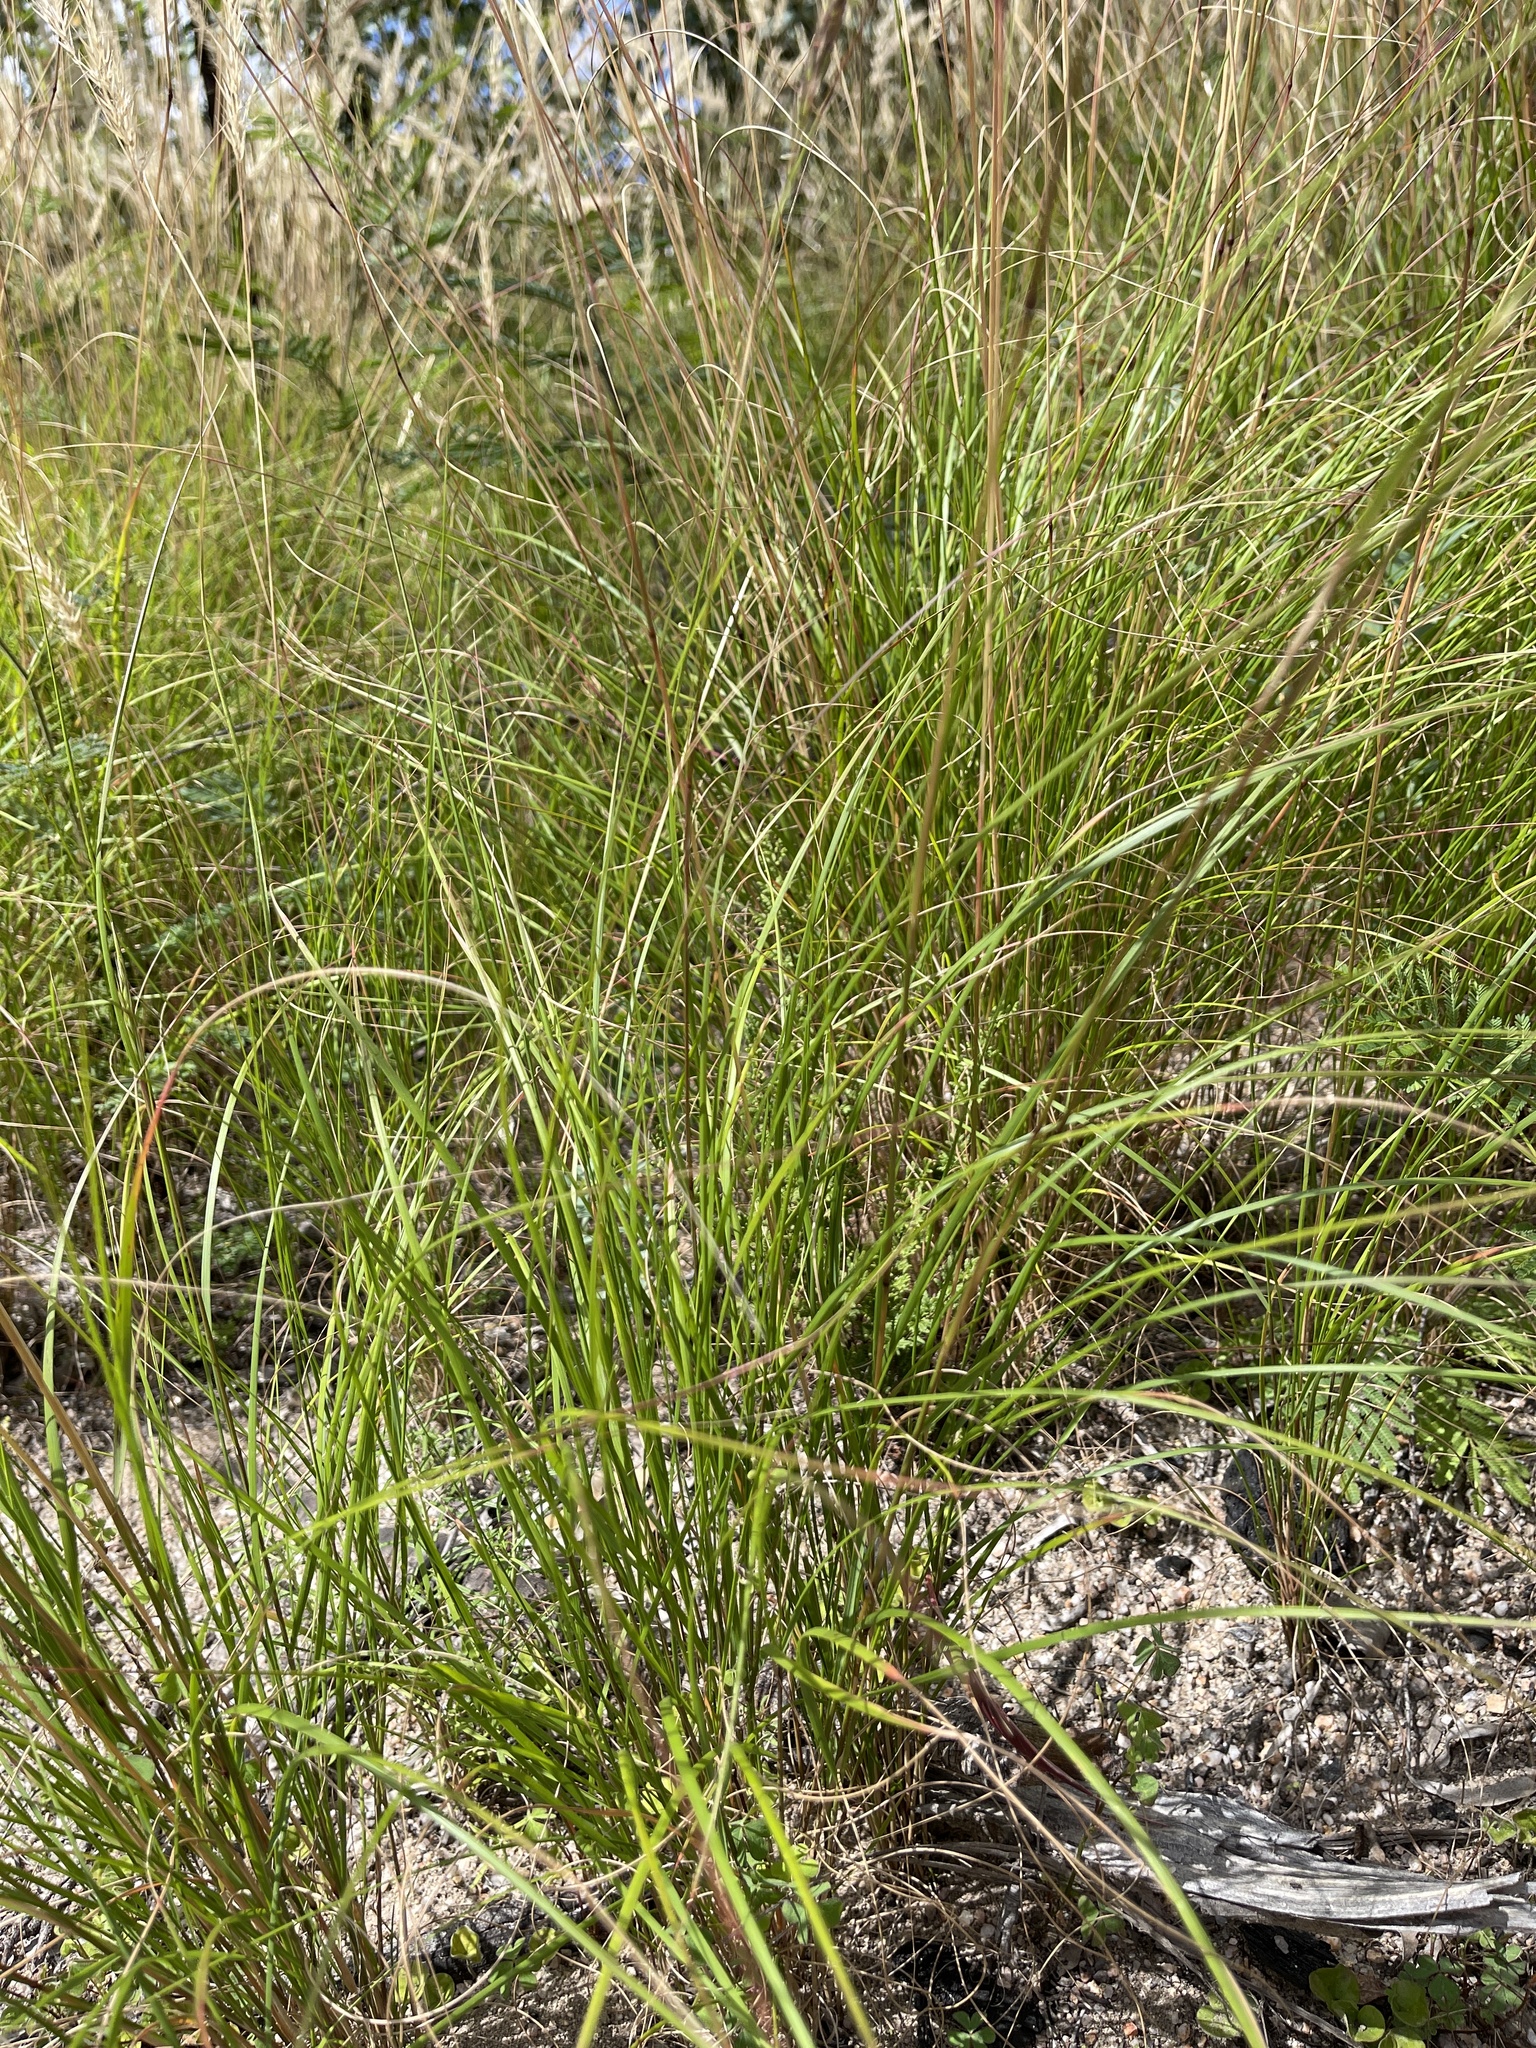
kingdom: Plantae
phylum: Tracheophyta
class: Liliopsida
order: Poales
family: Poaceae
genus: Imperata
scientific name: Imperata cylindrica
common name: Cogongrass
